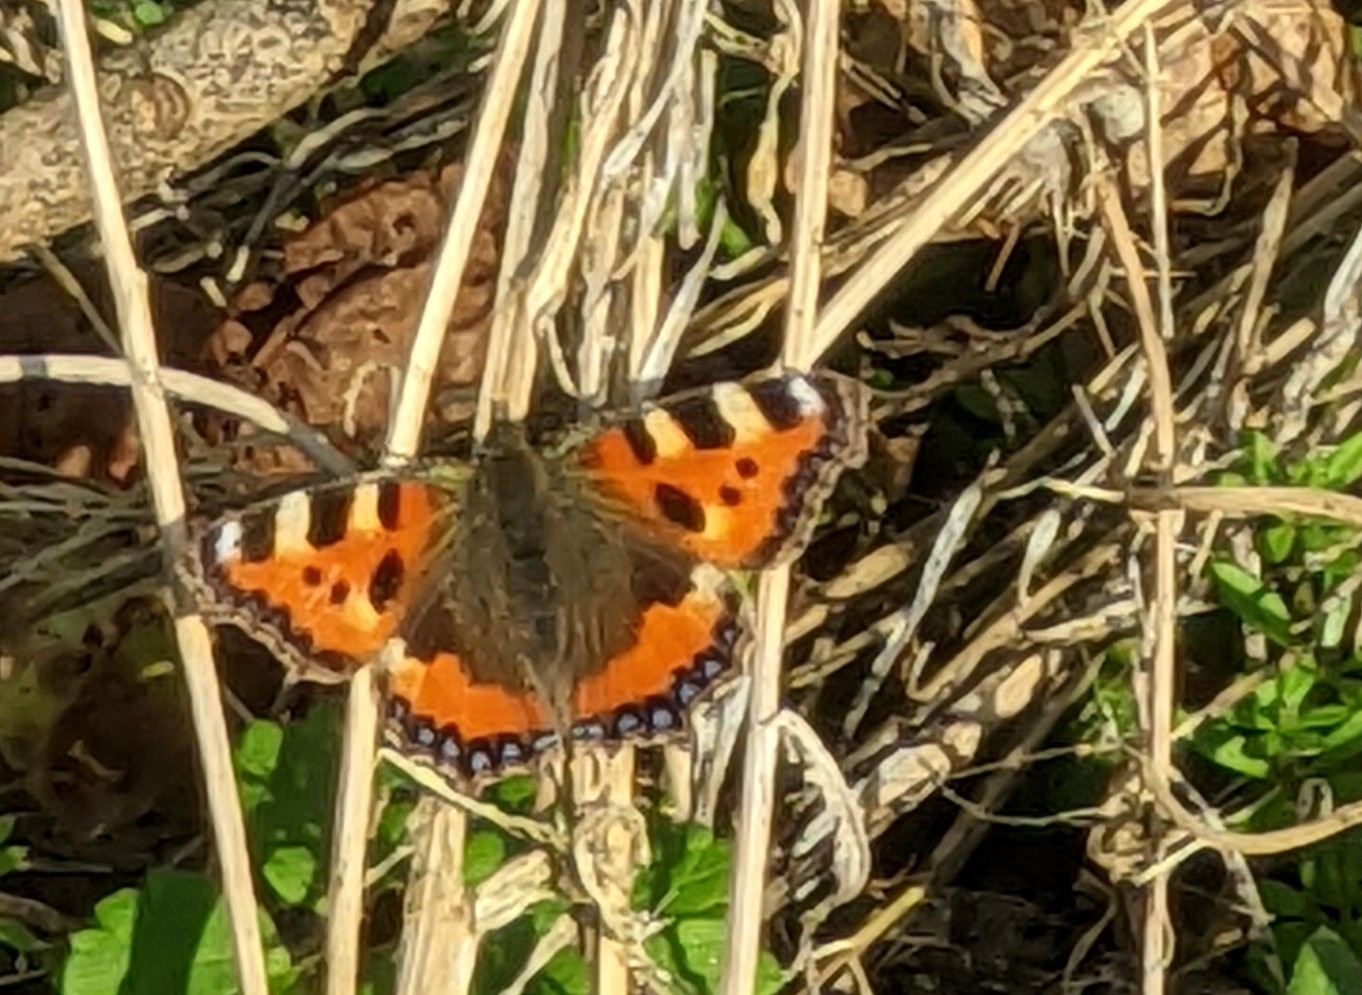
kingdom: Animalia
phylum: Arthropoda
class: Insecta
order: Lepidoptera
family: Nymphalidae
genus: Aglais
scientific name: Aglais urticae
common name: Small tortoiseshell
